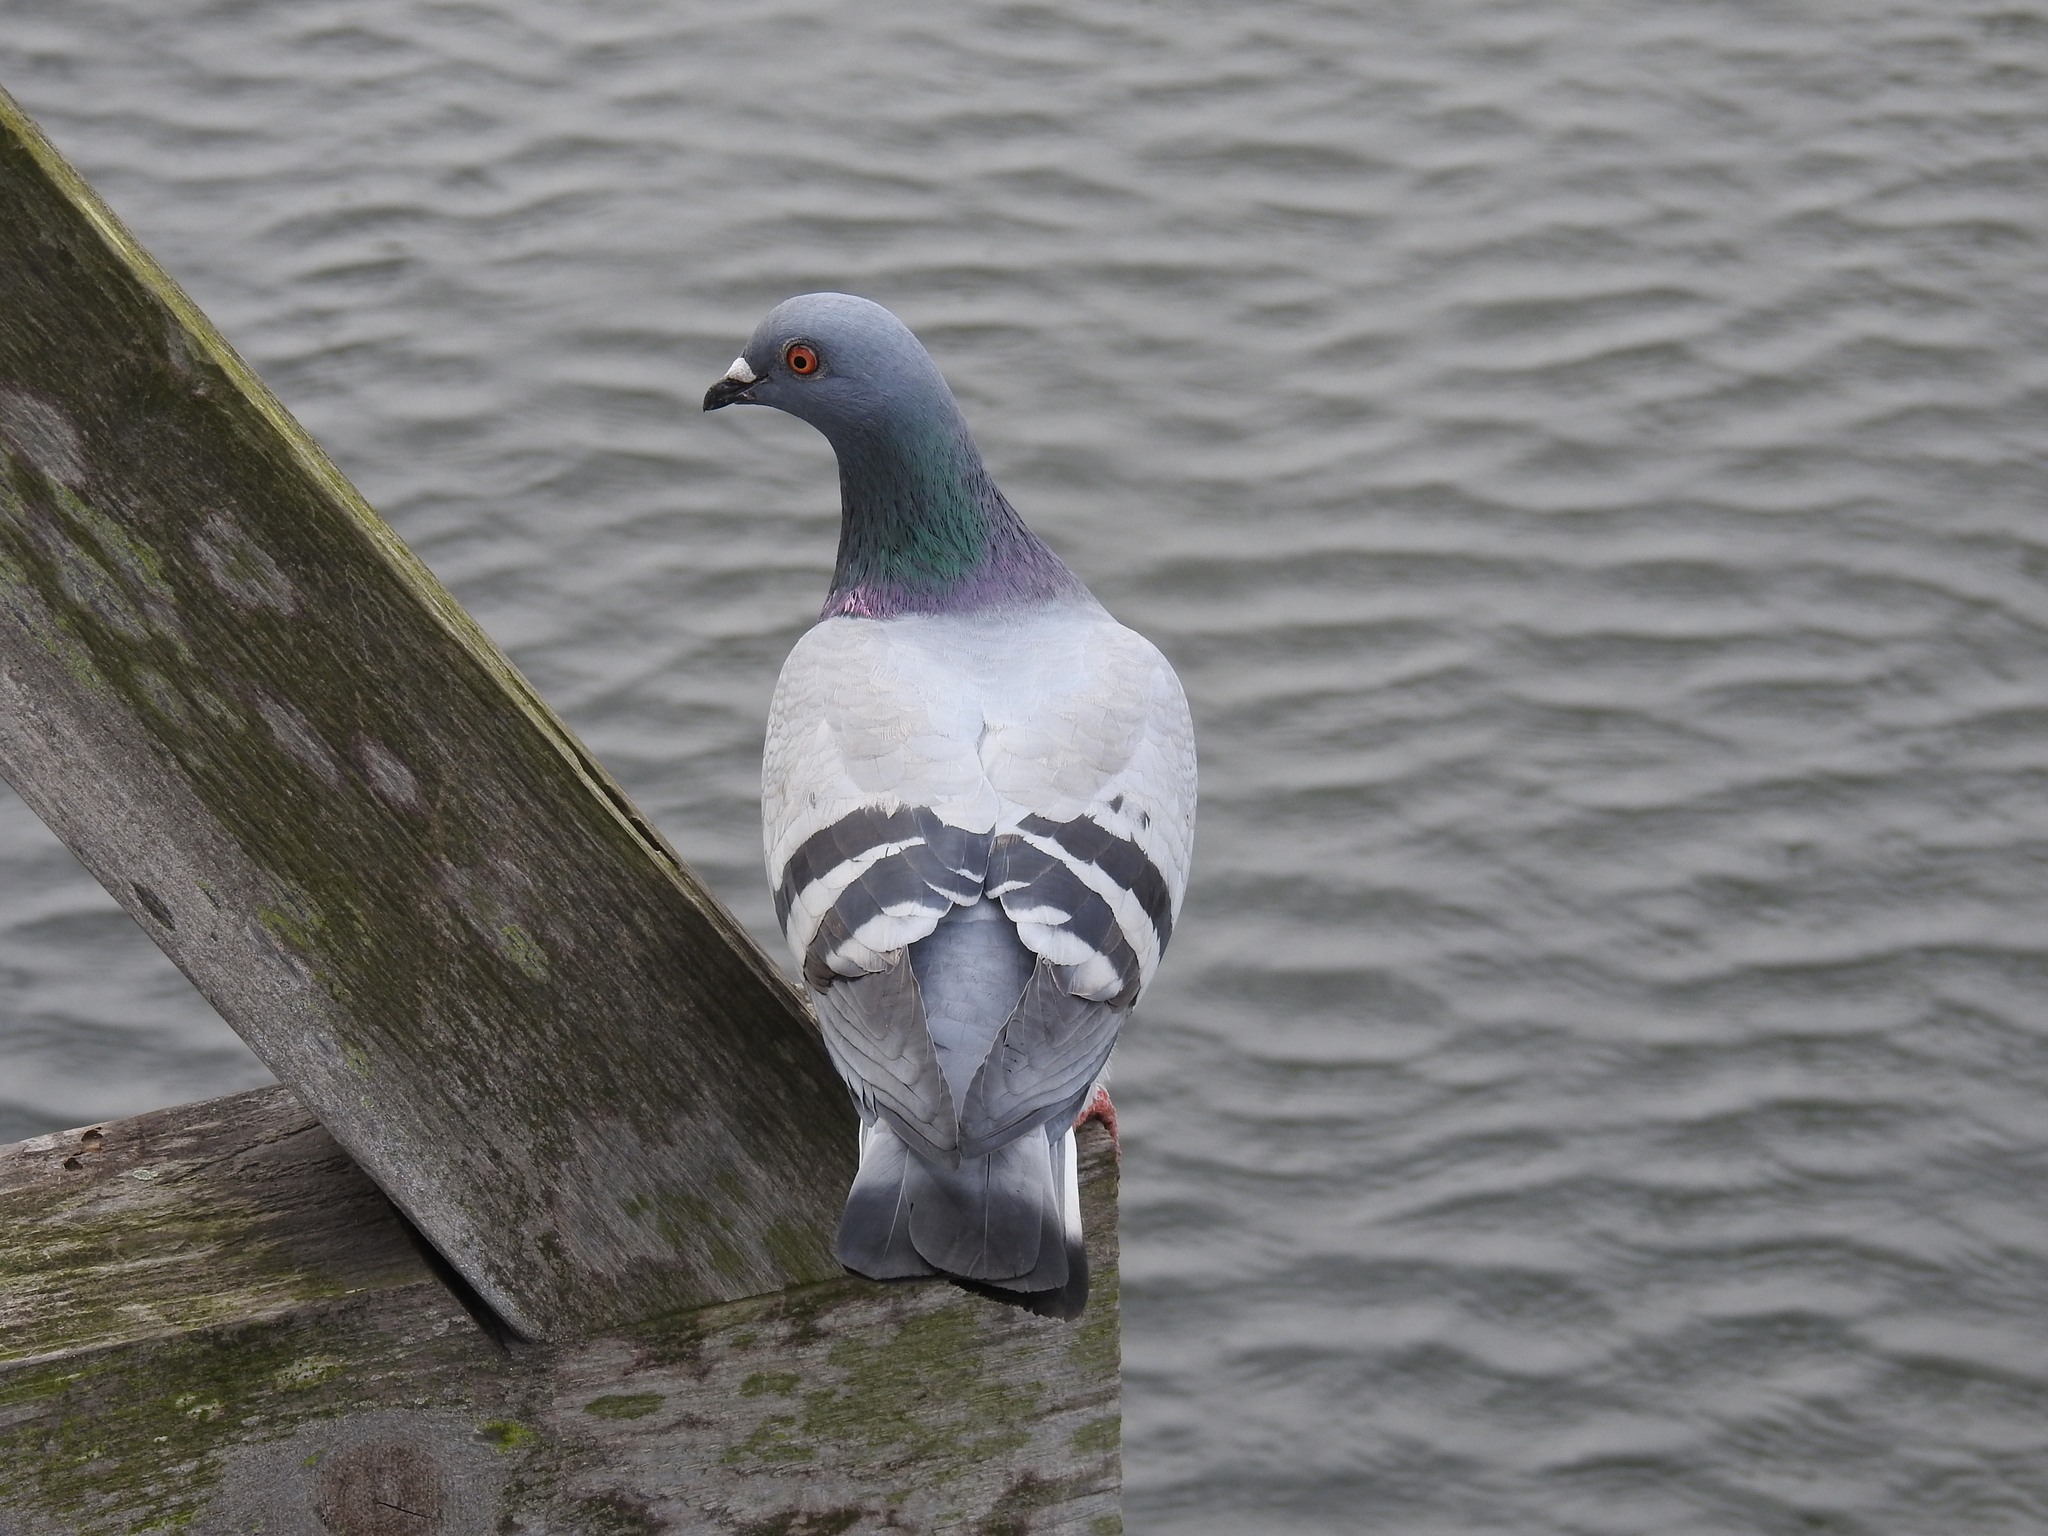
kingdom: Animalia
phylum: Chordata
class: Aves
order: Columbiformes
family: Columbidae
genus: Columba
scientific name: Columba livia
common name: Rock pigeon
